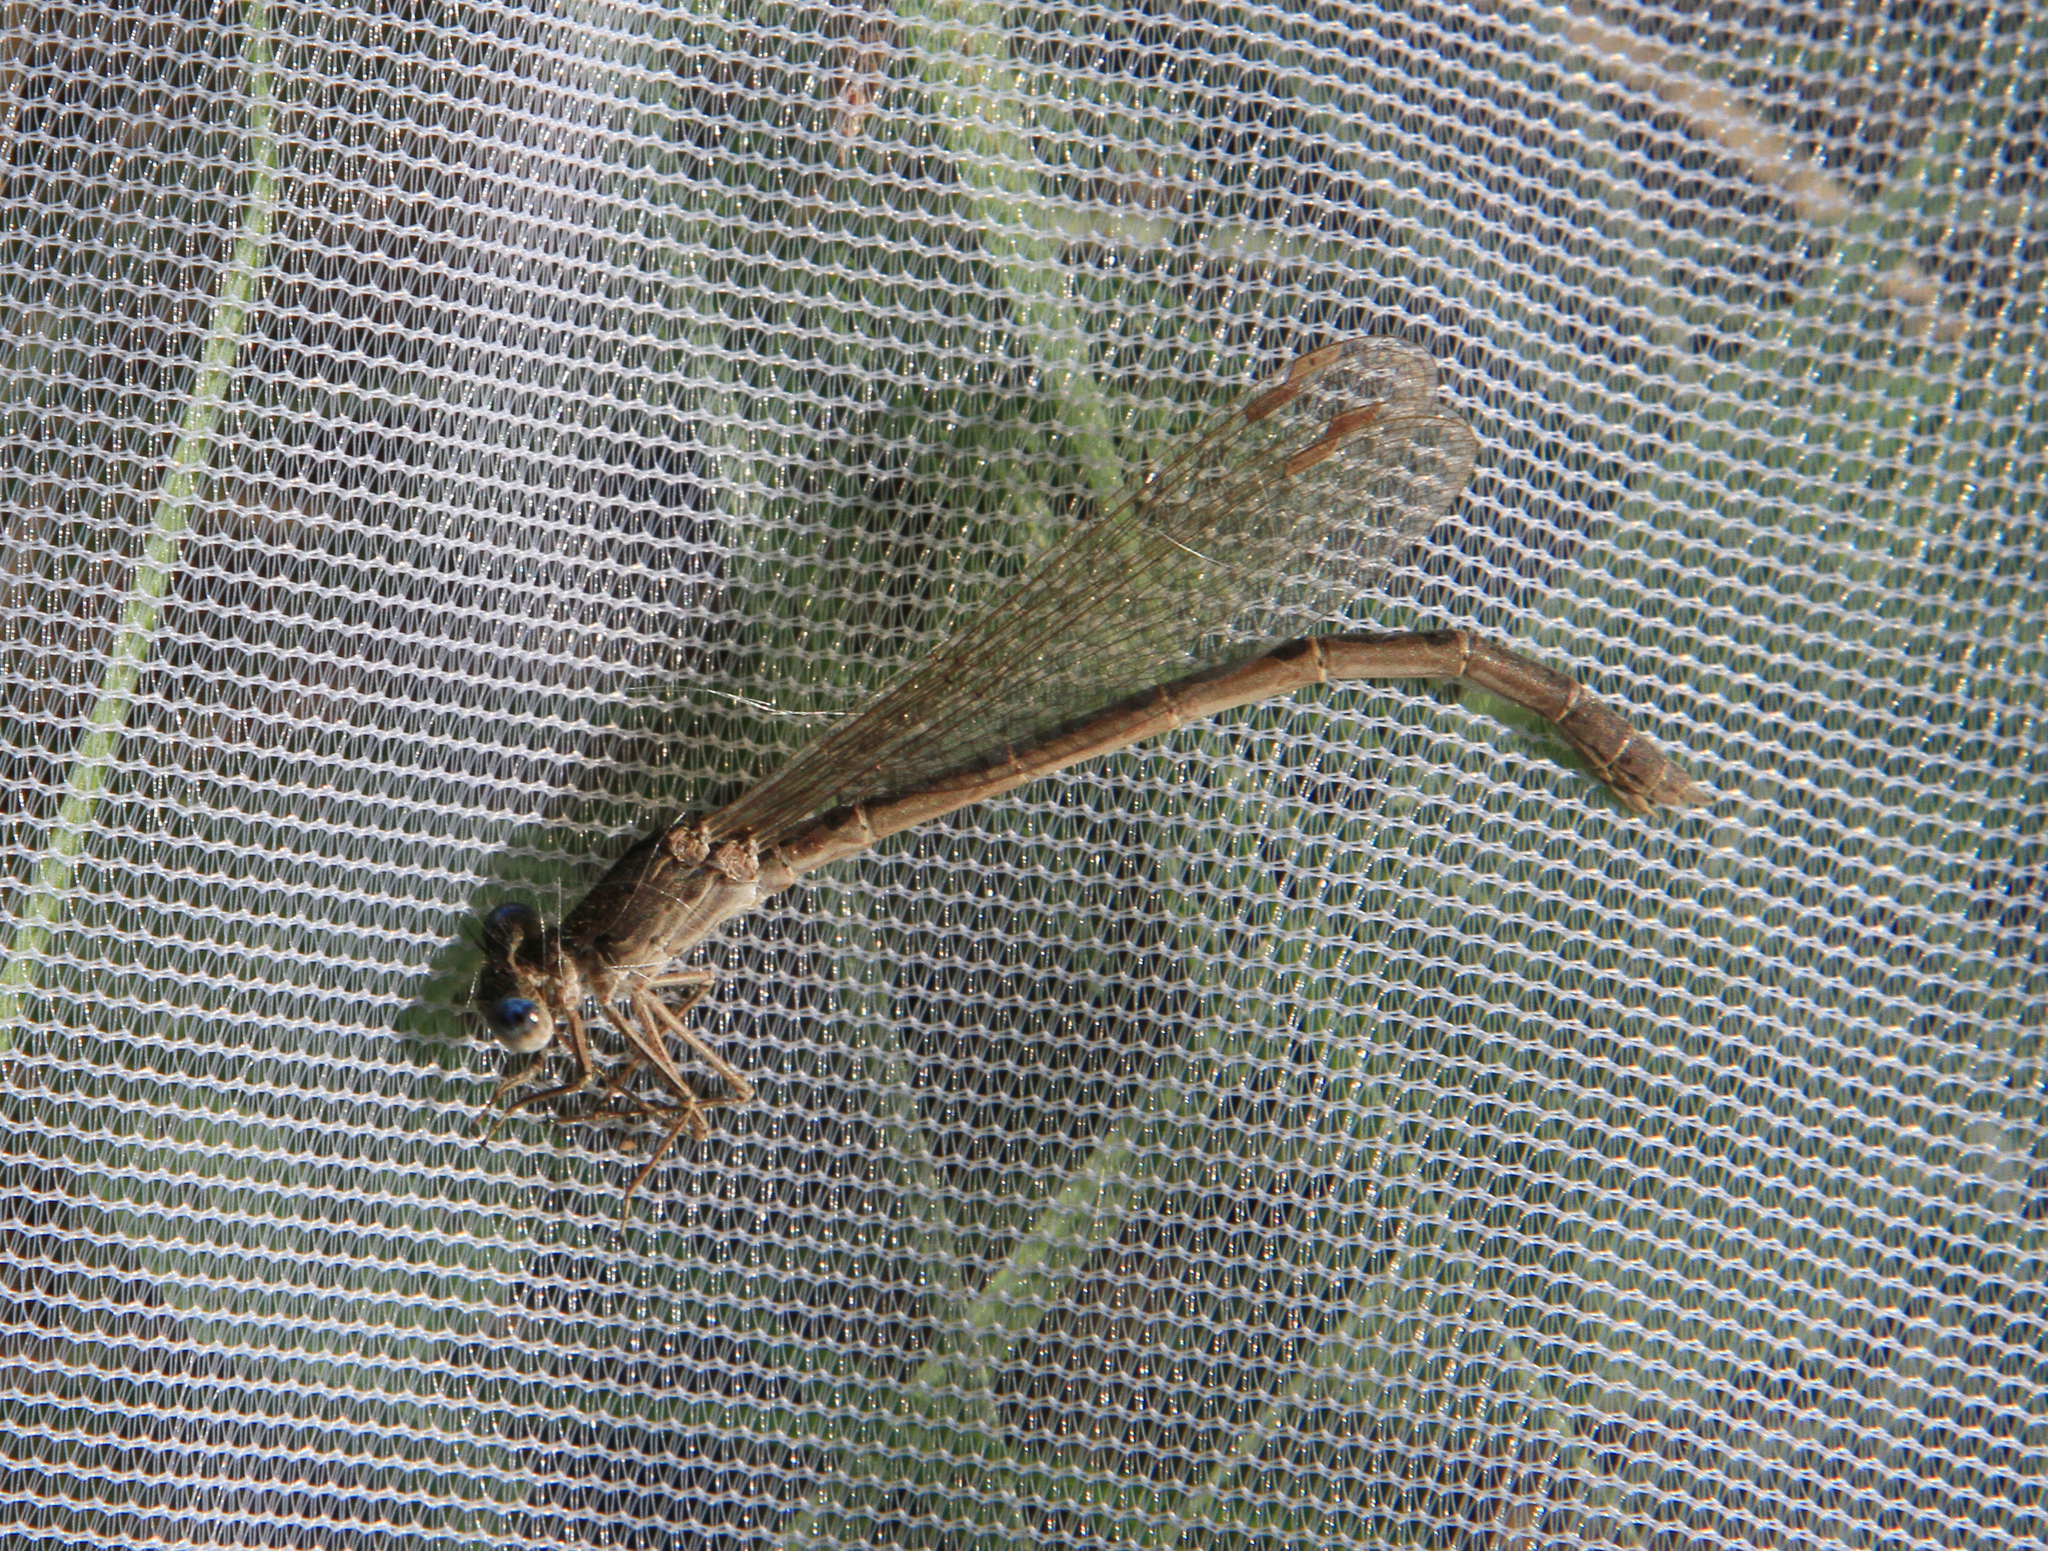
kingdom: Animalia
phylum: Arthropoda
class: Insecta
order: Odonata
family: Lestidae
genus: Sympecma
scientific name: Sympecma paedisca
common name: Siberian winter damsel
